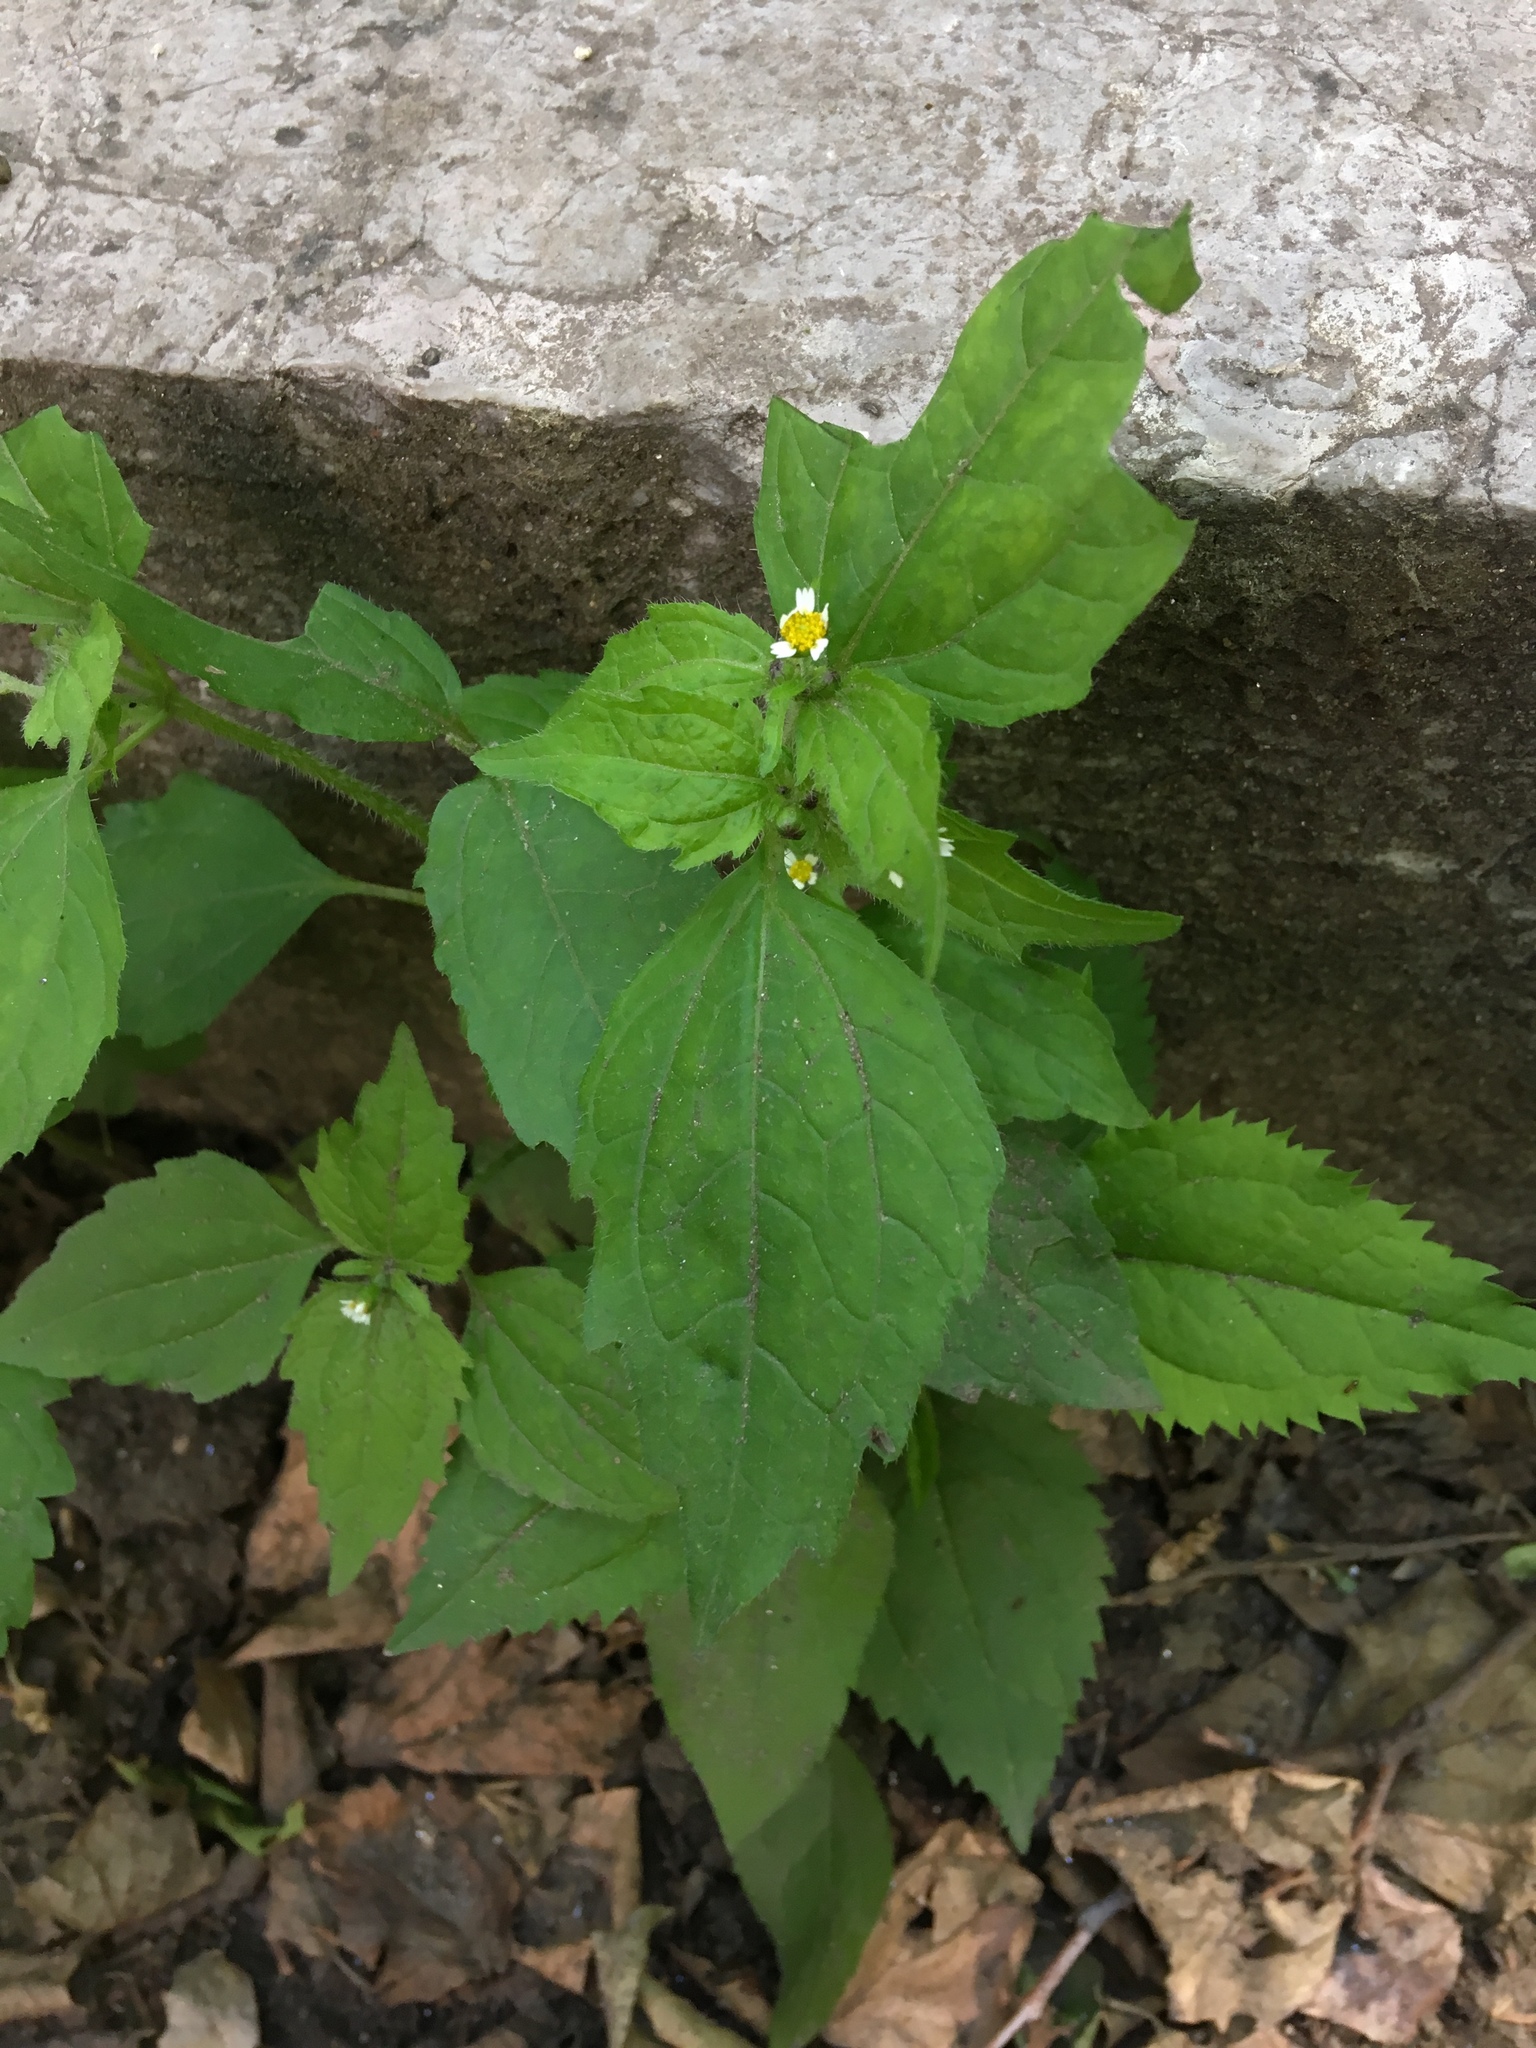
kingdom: Plantae
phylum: Tracheophyta
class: Magnoliopsida
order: Asterales
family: Asteraceae
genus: Galinsoga
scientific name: Galinsoga quadriradiata
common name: Shaggy soldier
